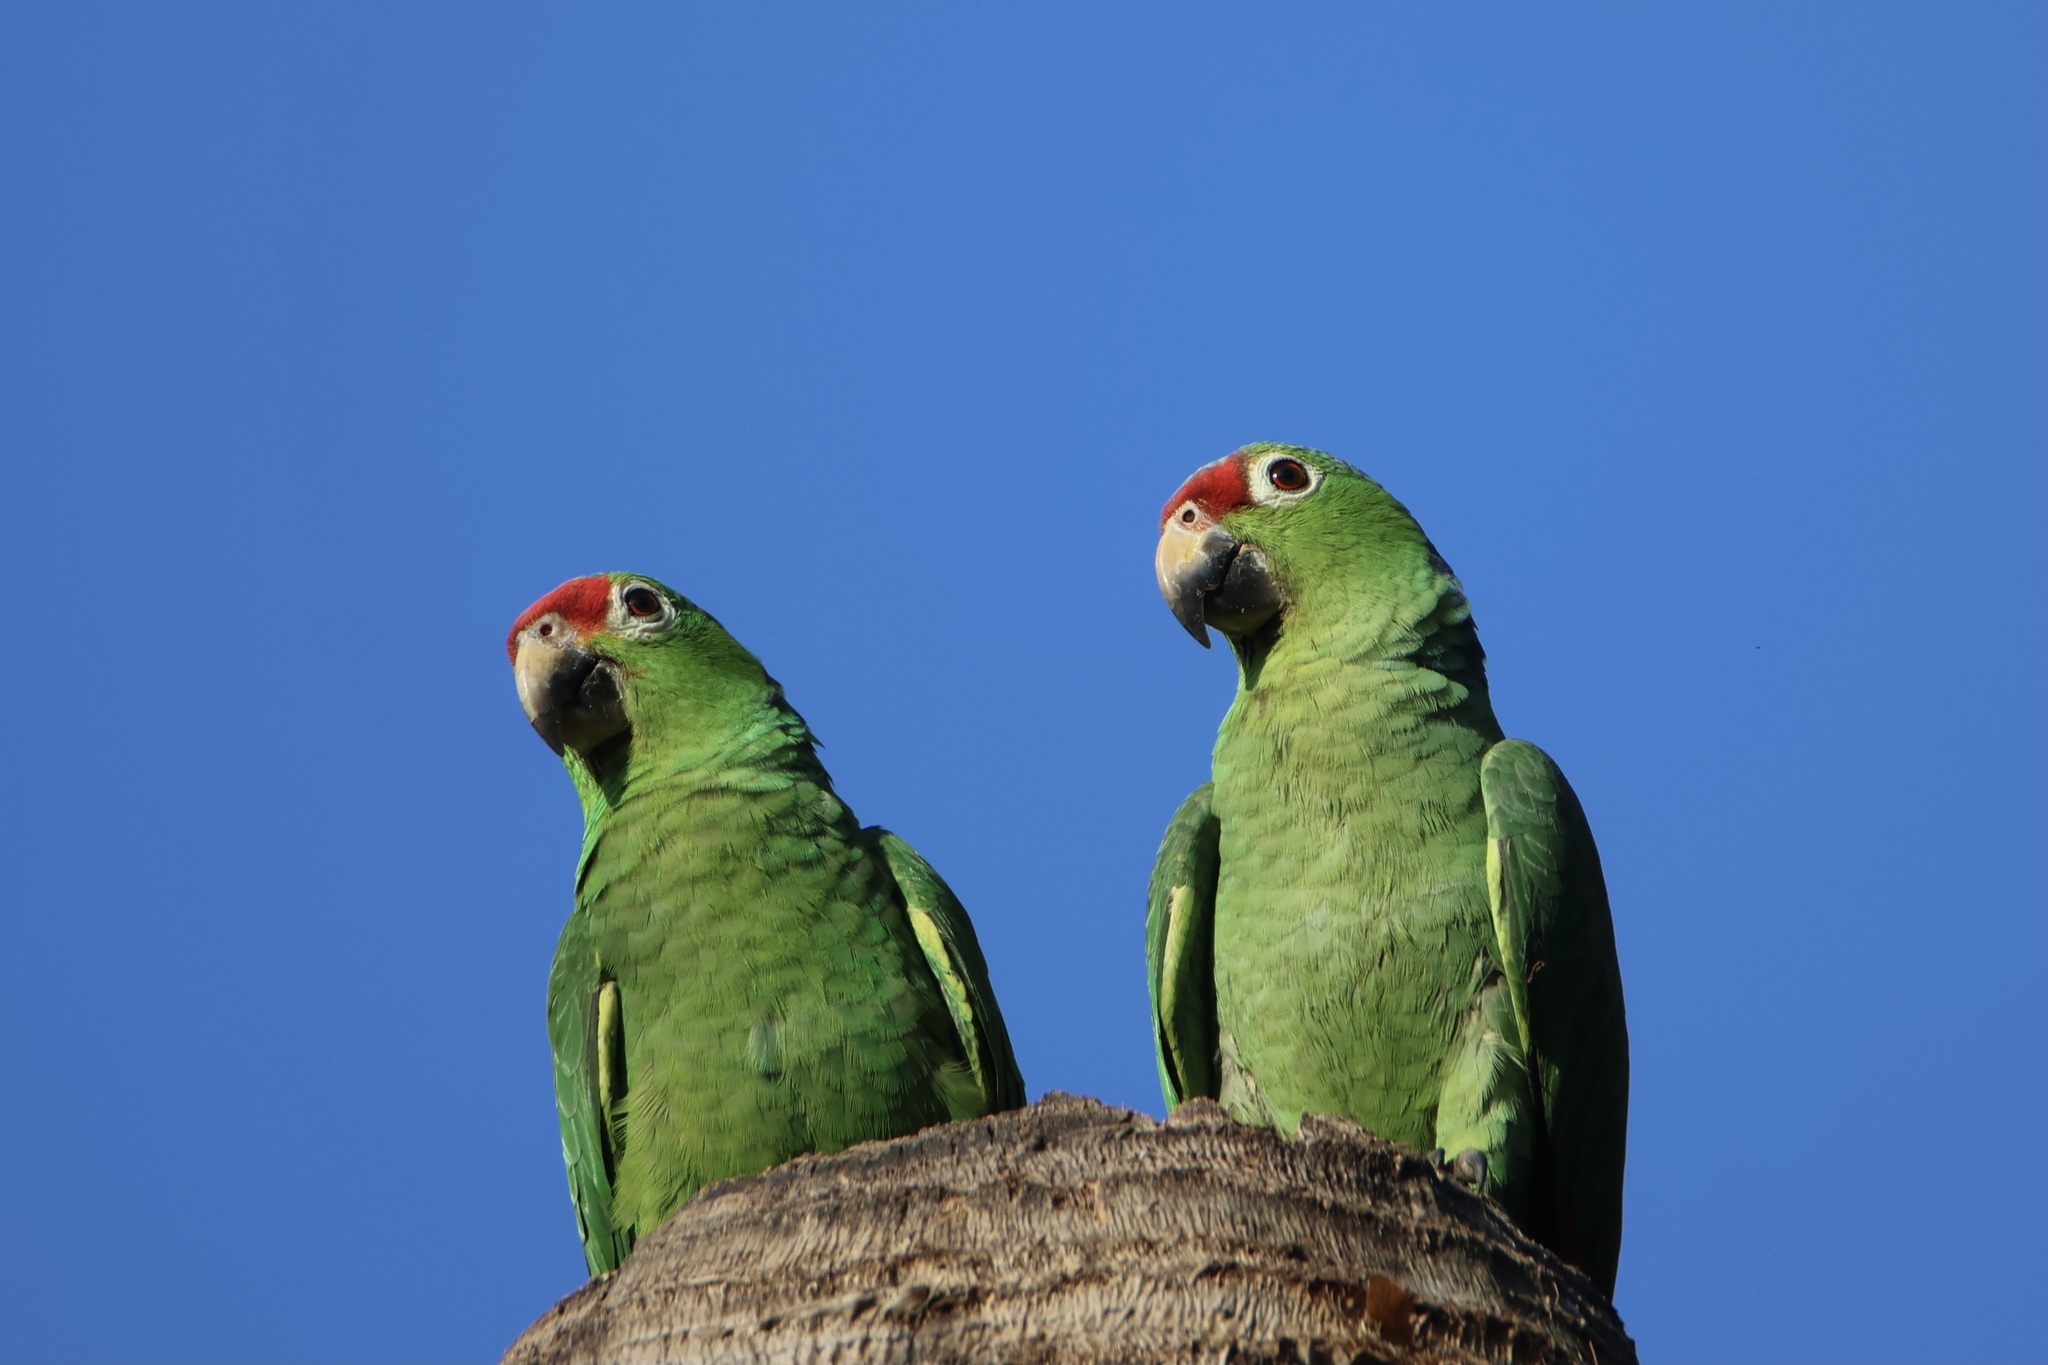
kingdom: Animalia
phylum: Chordata
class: Aves
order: Psittaciformes
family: Psittacidae
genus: Amazona
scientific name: Amazona autumnalis
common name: Red-lored amazon
